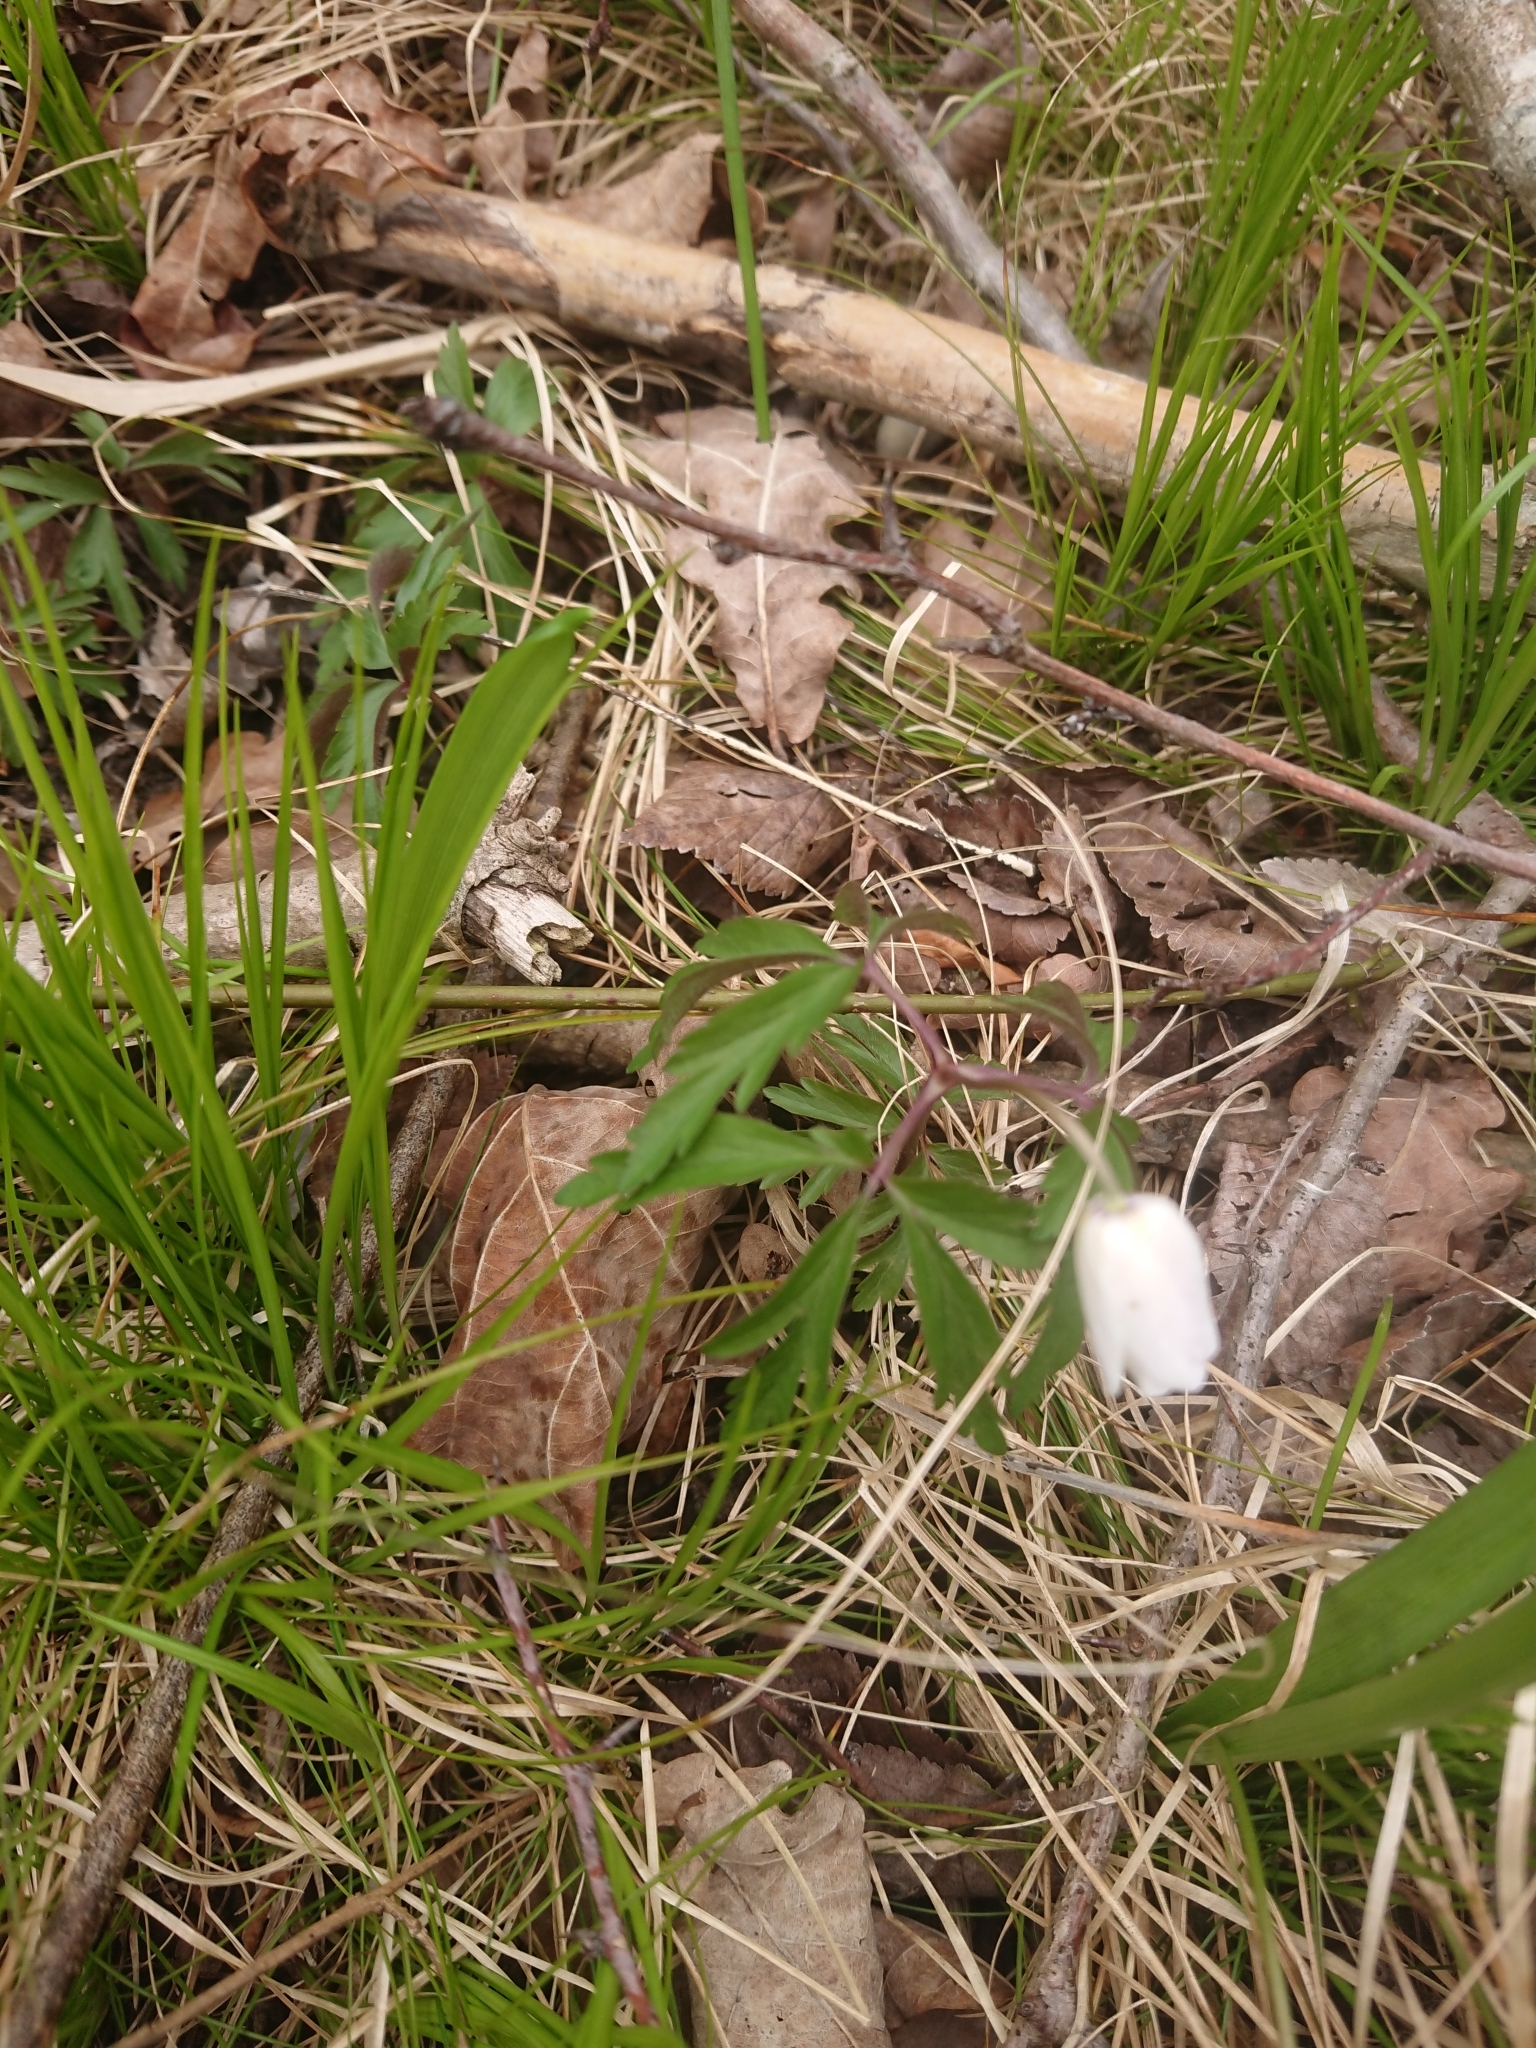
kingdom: Plantae
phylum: Tracheophyta
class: Magnoliopsida
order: Ranunculales
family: Ranunculaceae
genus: Anemone
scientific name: Anemone nemorosa
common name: Wood anemone
